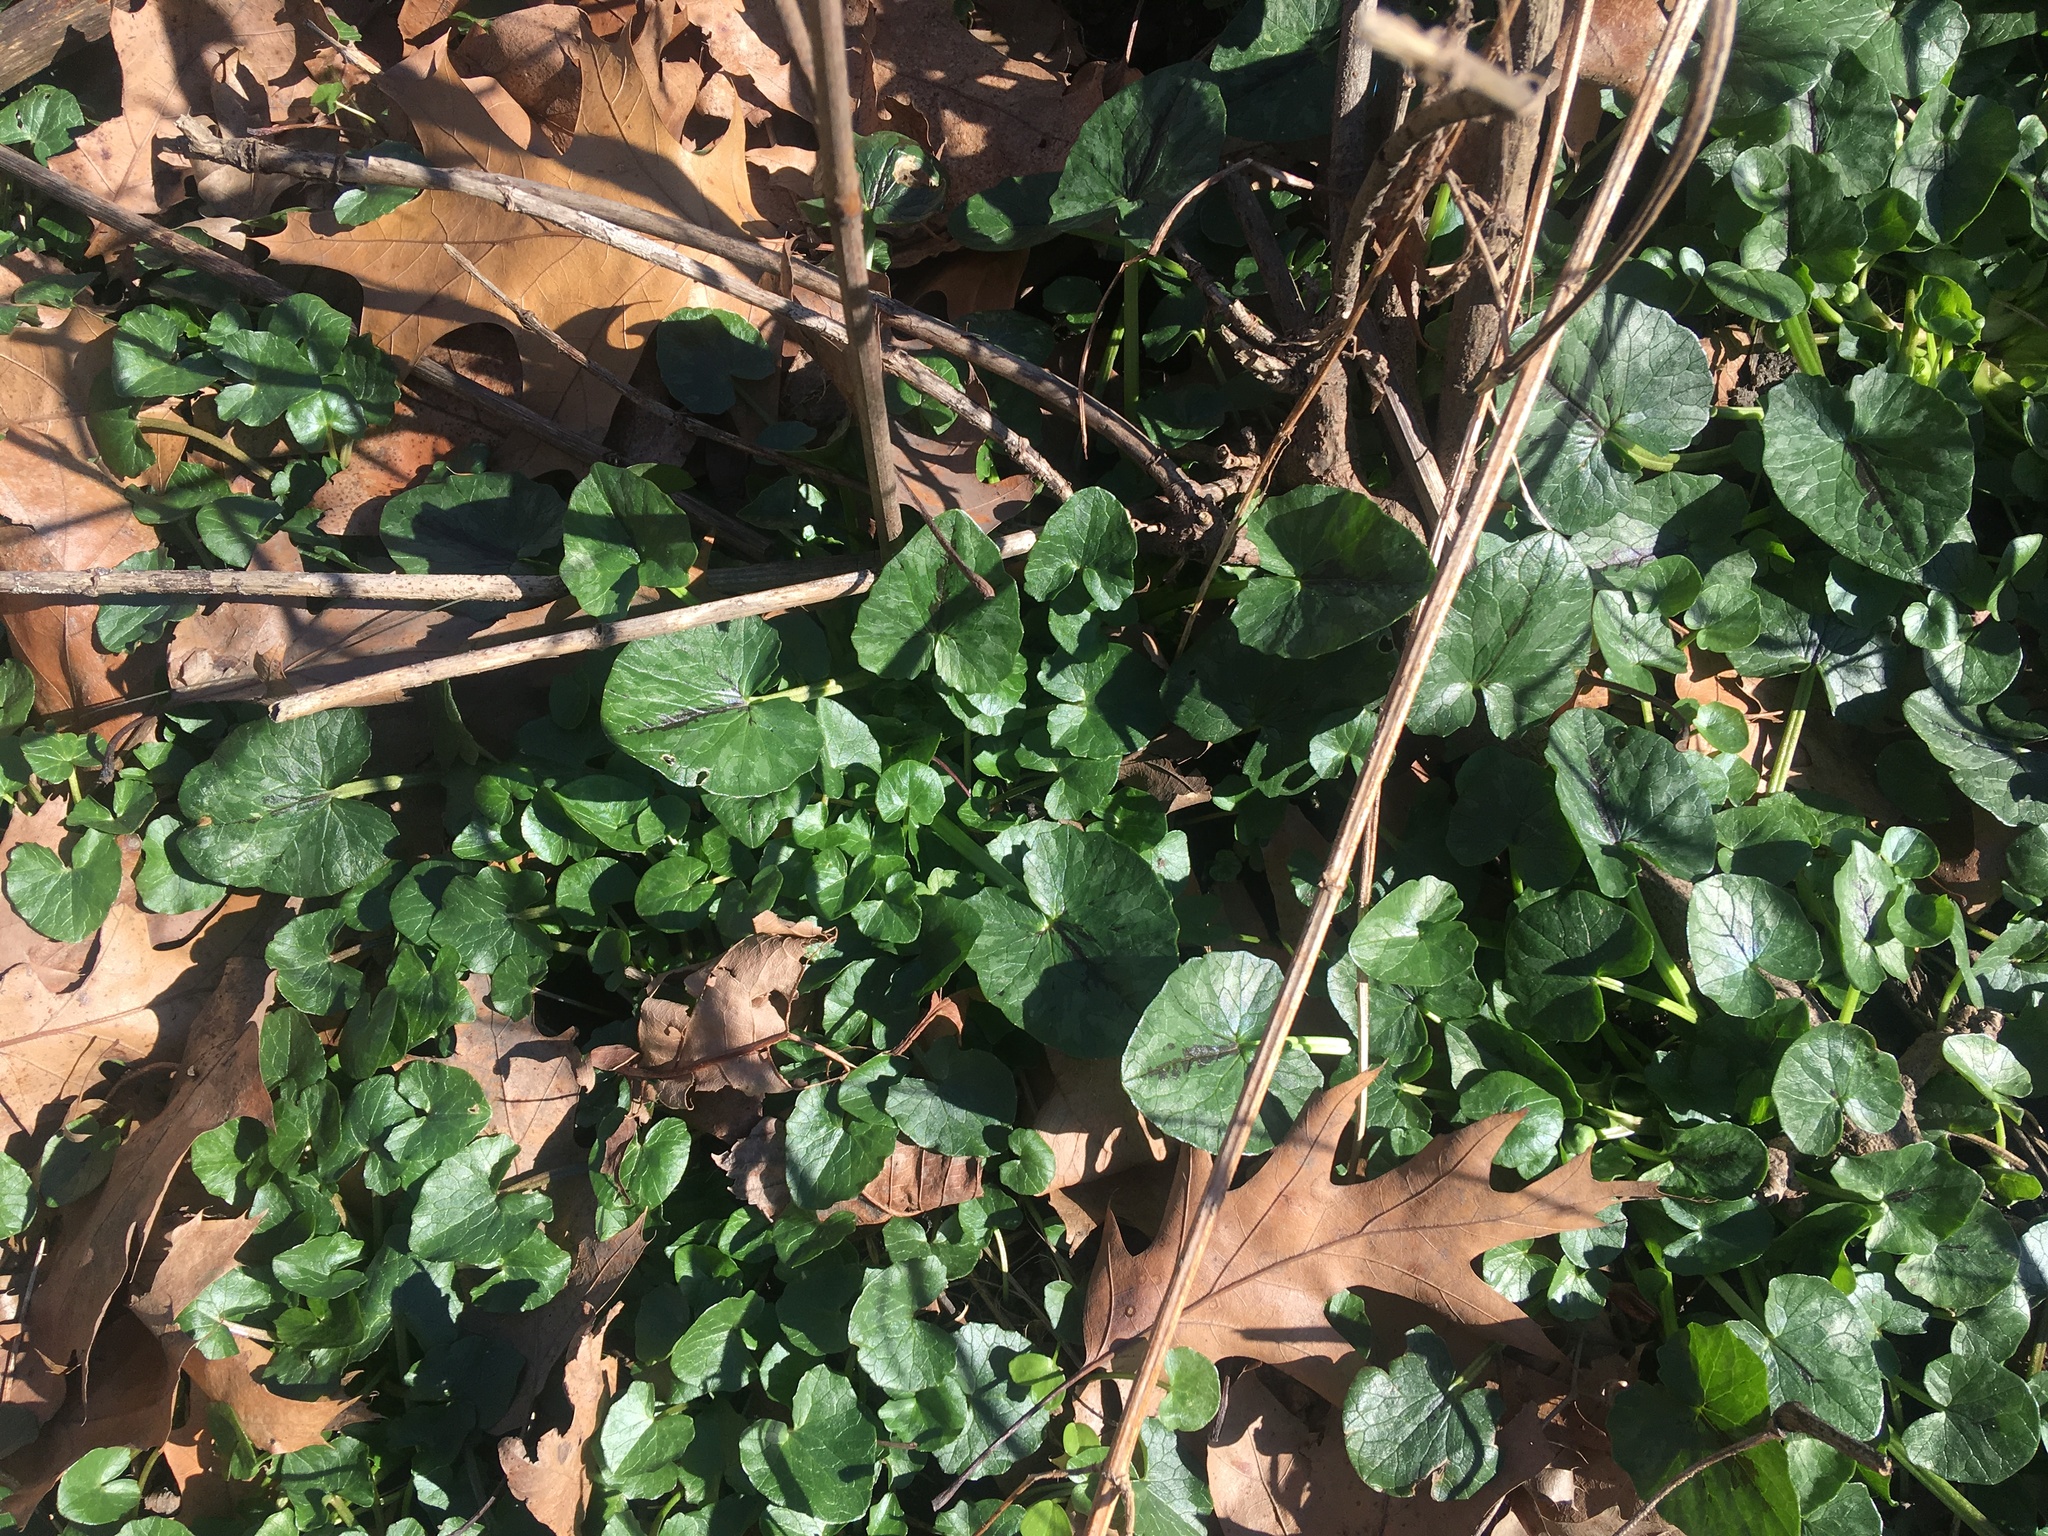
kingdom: Plantae
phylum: Tracheophyta
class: Magnoliopsida
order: Ranunculales
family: Ranunculaceae
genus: Ficaria
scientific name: Ficaria verna
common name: Lesser celandine
